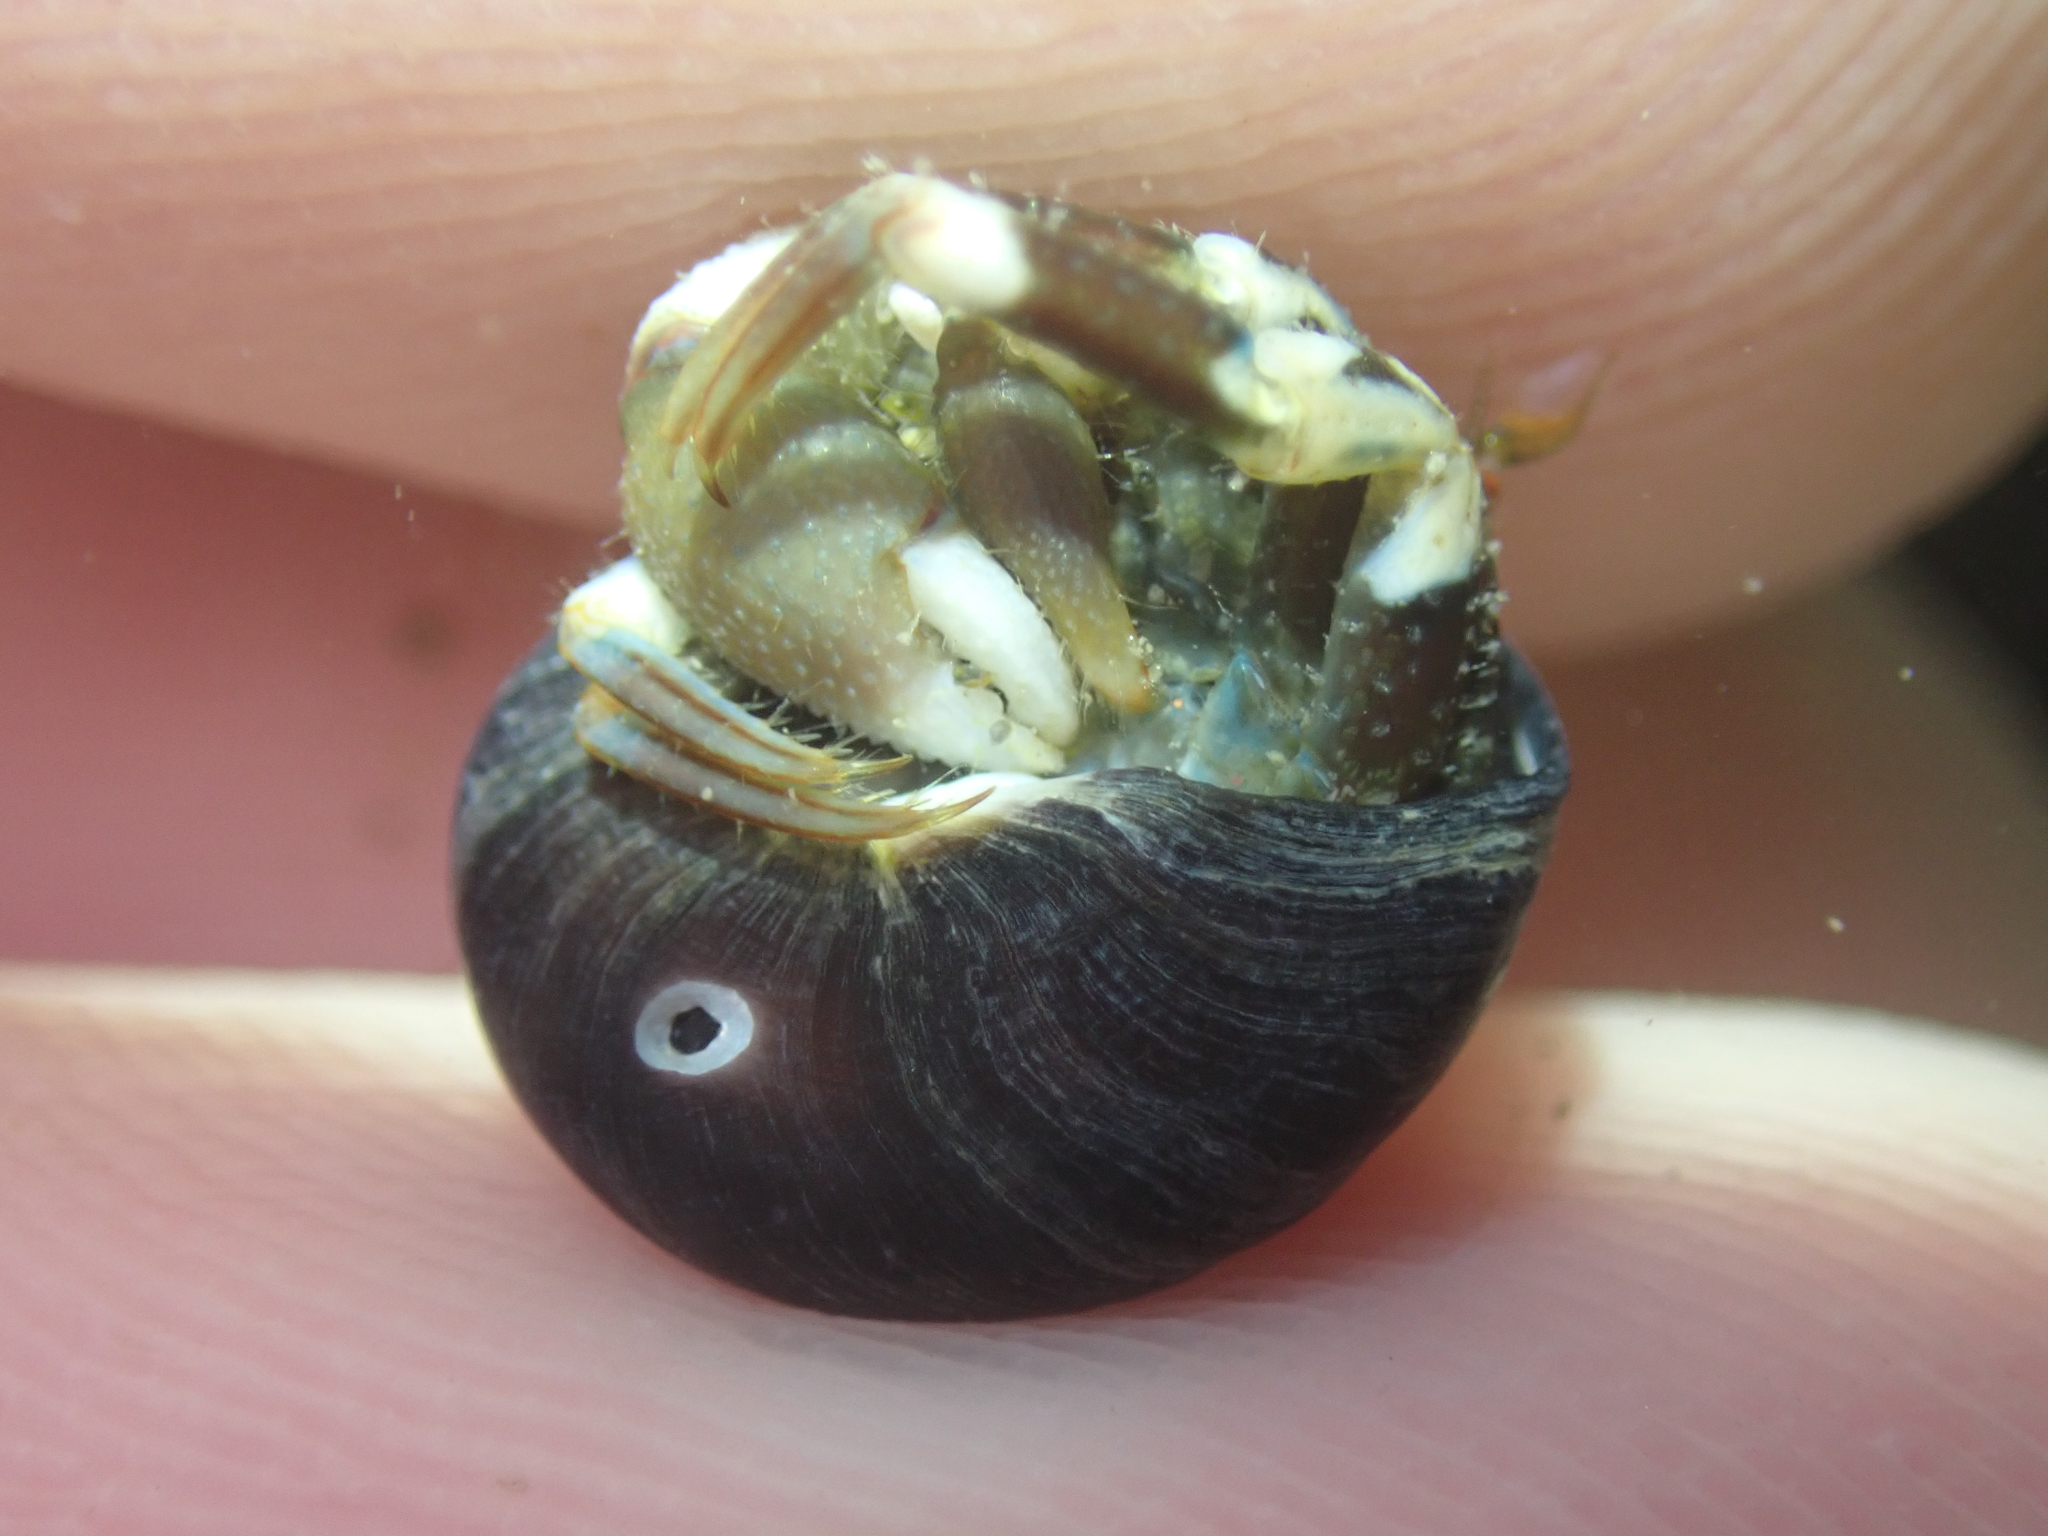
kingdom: Animalia
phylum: Mollusca
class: Gastropoda
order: Trochida
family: Tegulidae
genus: Tegula
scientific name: Tegula funebralis
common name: Black tegula
